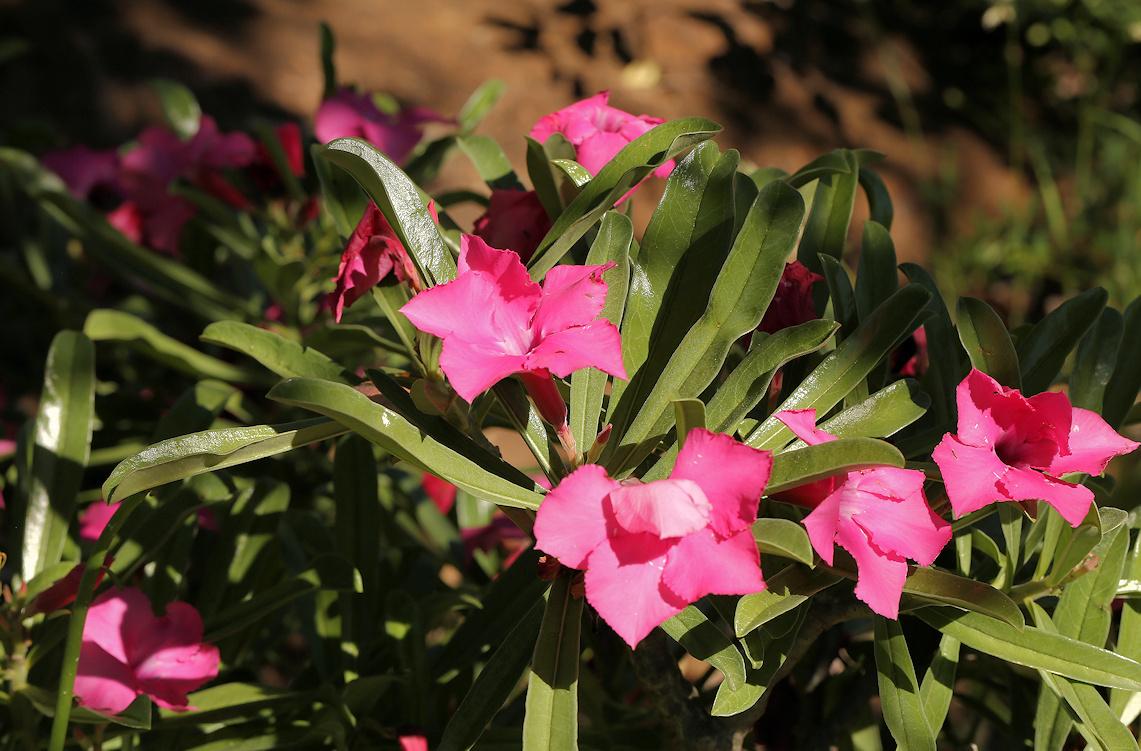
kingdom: Plantae
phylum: Tracheophyta
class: Magnoliopsida
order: Gentianales
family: Apocynaceae
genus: Adenium
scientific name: Adenium obesum
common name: Desert-rose
